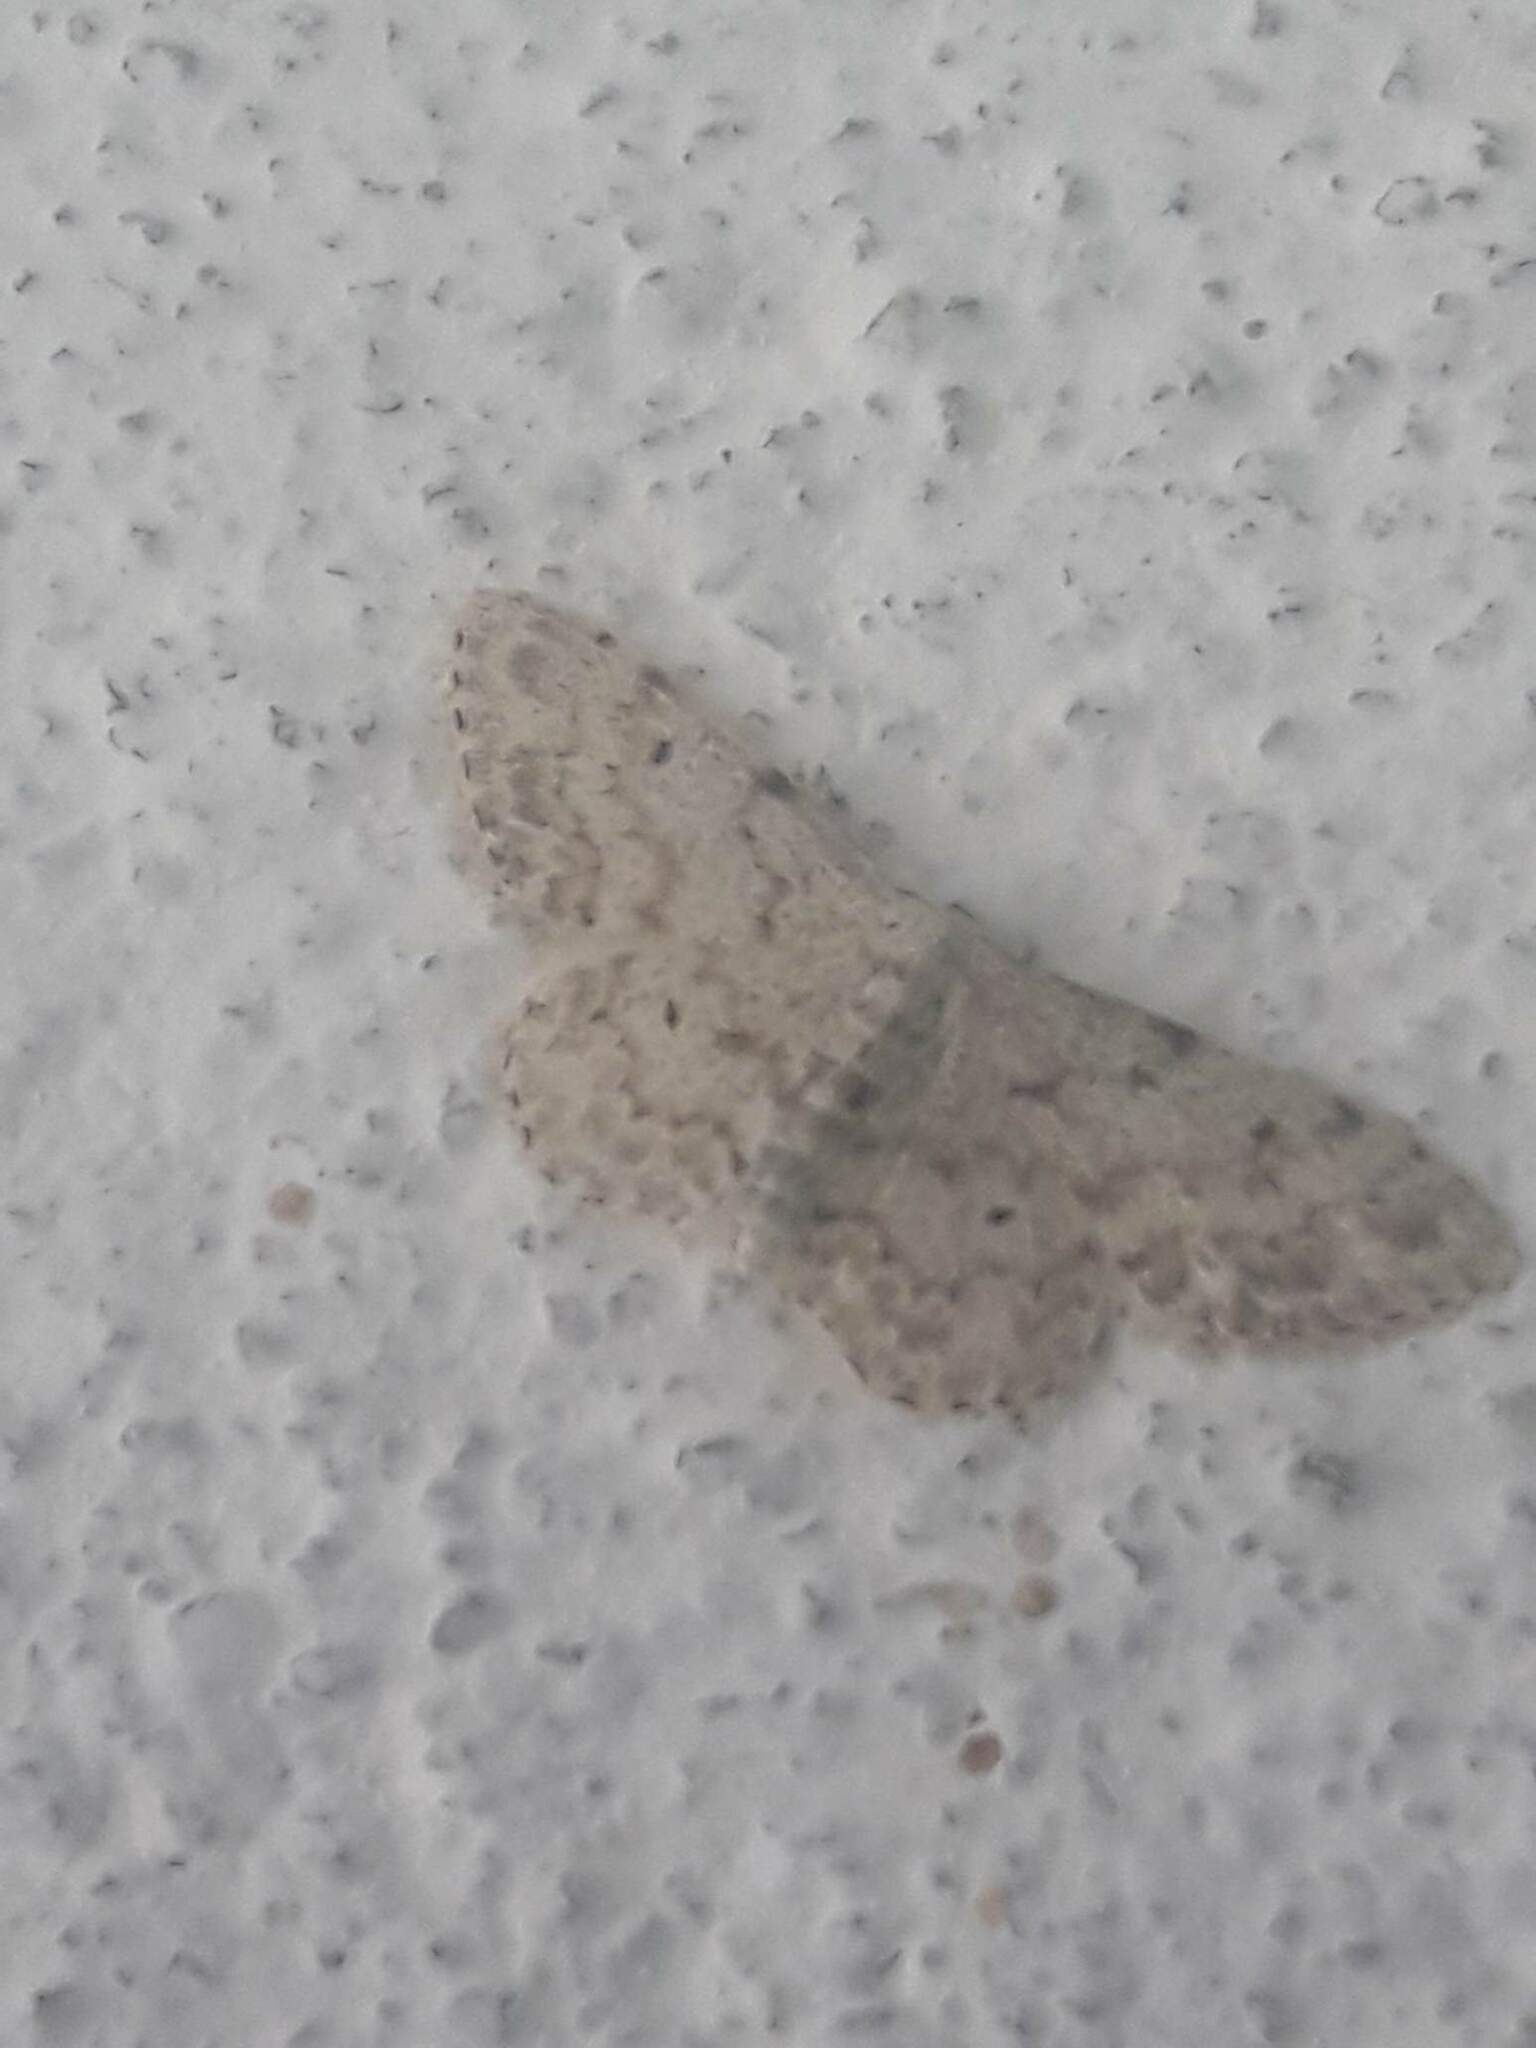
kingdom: Animalia
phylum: Arthropoda
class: Insecta
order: Lepidoptera
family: Geometridae
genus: Idaea
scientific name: Idaea camparia
